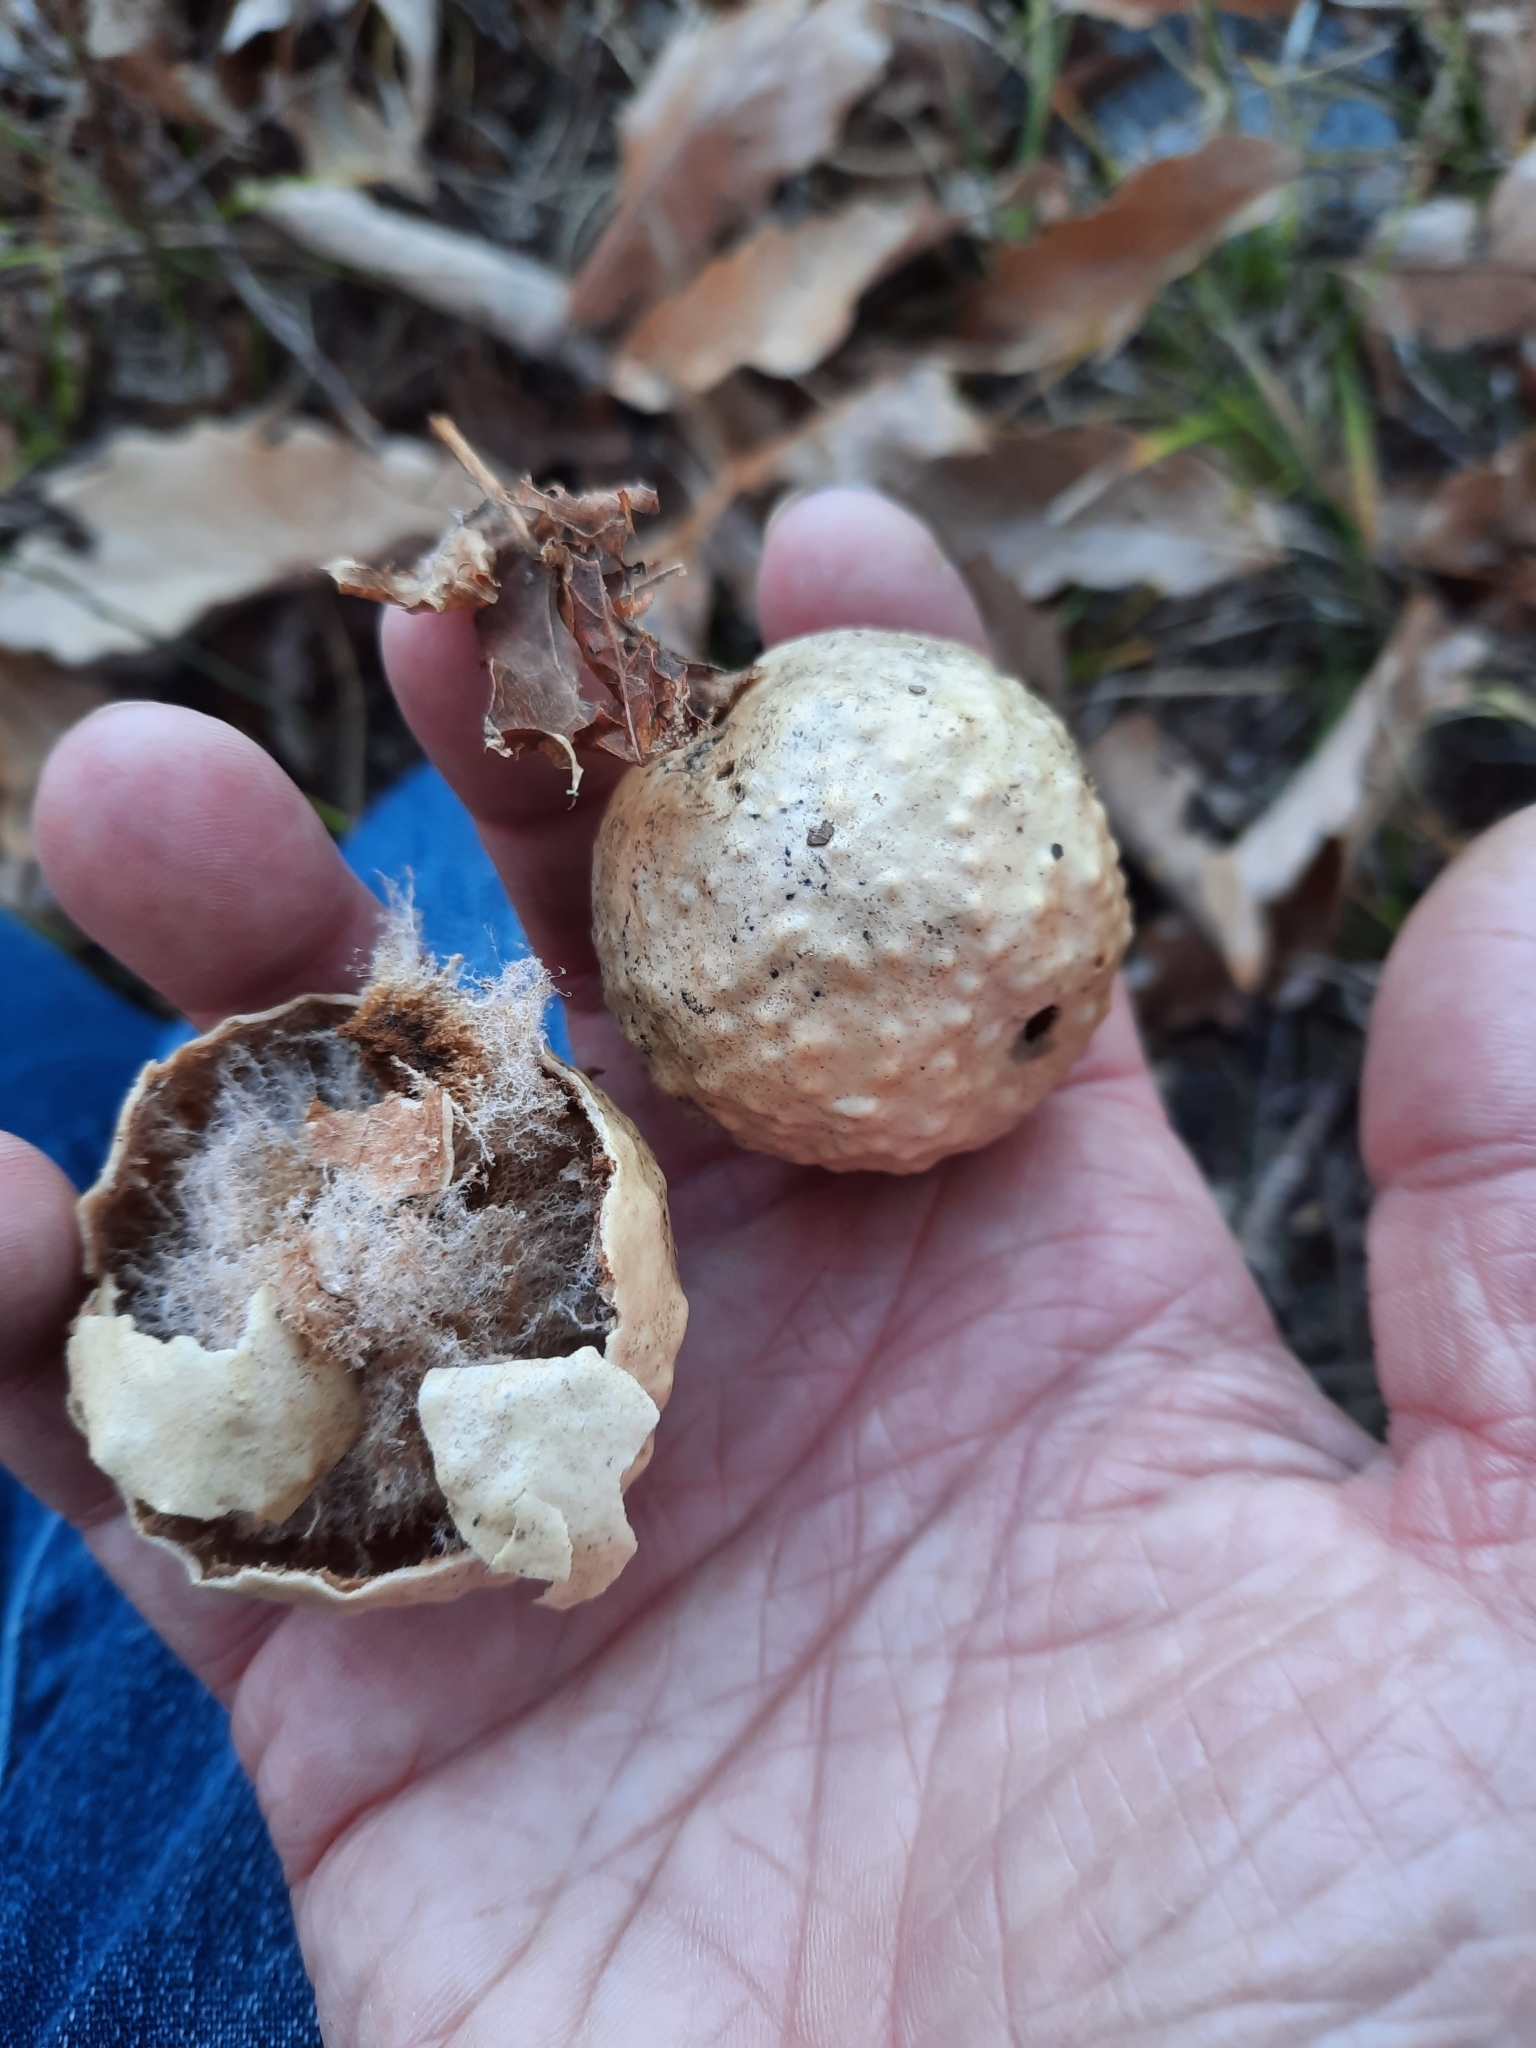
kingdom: Animalia
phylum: Arthropoda
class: Insecta
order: Hymenoptera
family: Cynipidae
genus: Amphibolips
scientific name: Amphibolips
